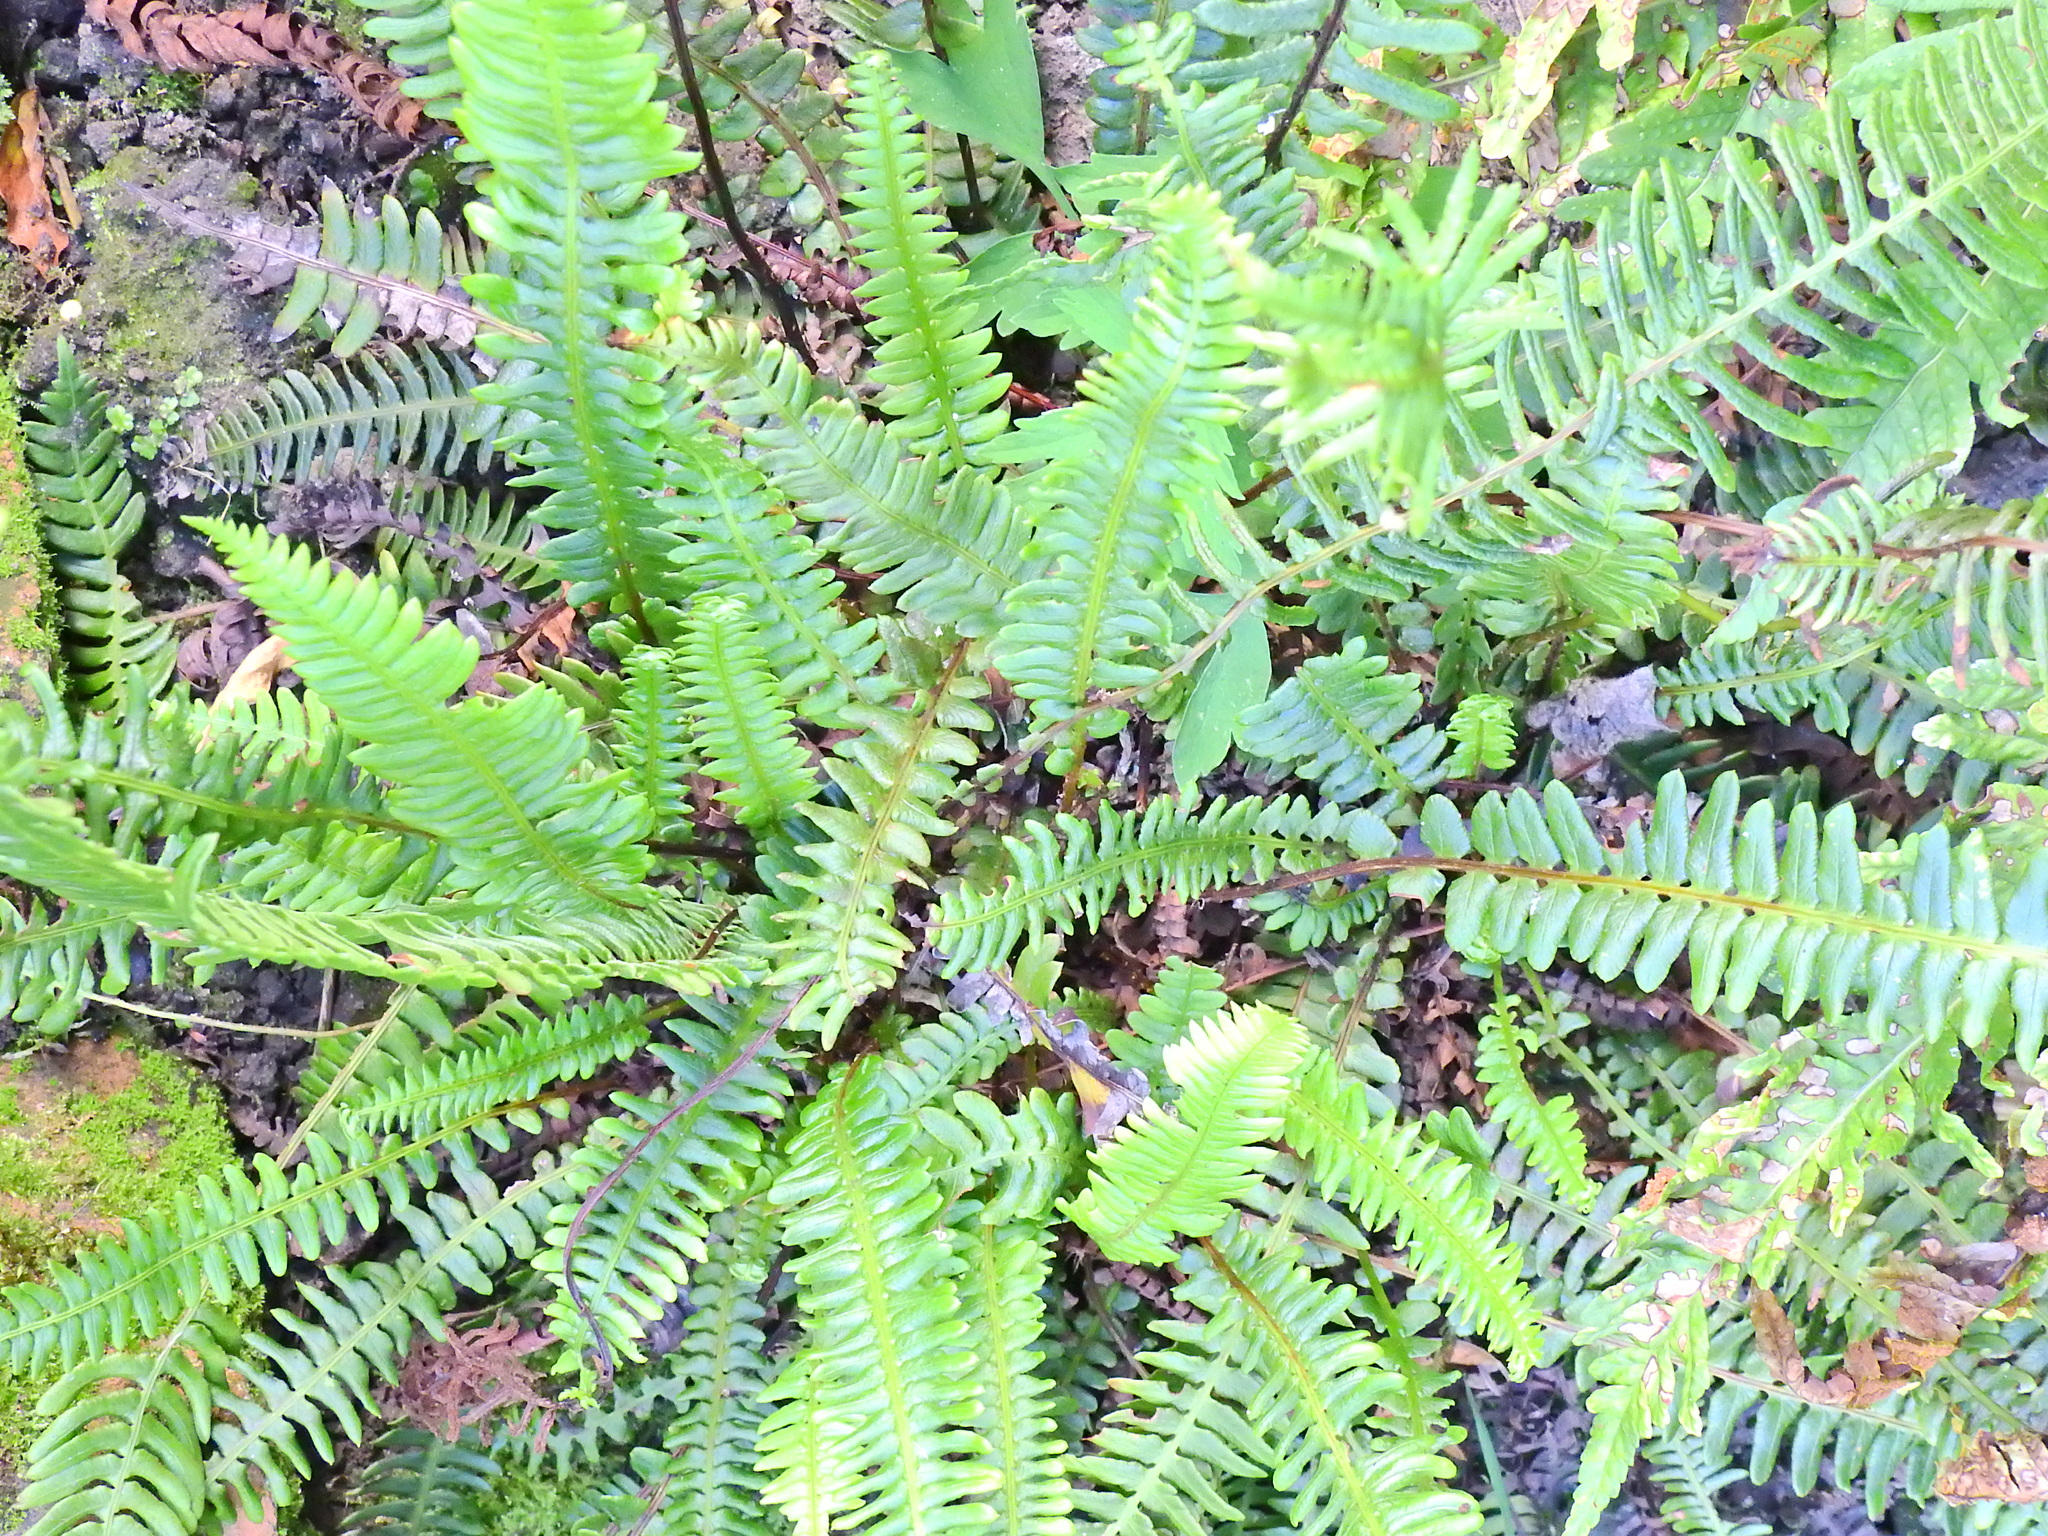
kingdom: Plantae
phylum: Tracheophyta
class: Polypodiopsida
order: Polypodiales
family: Blechnaceae
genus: Struthiopteris
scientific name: Struthiopteris spicant
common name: Deer fern
